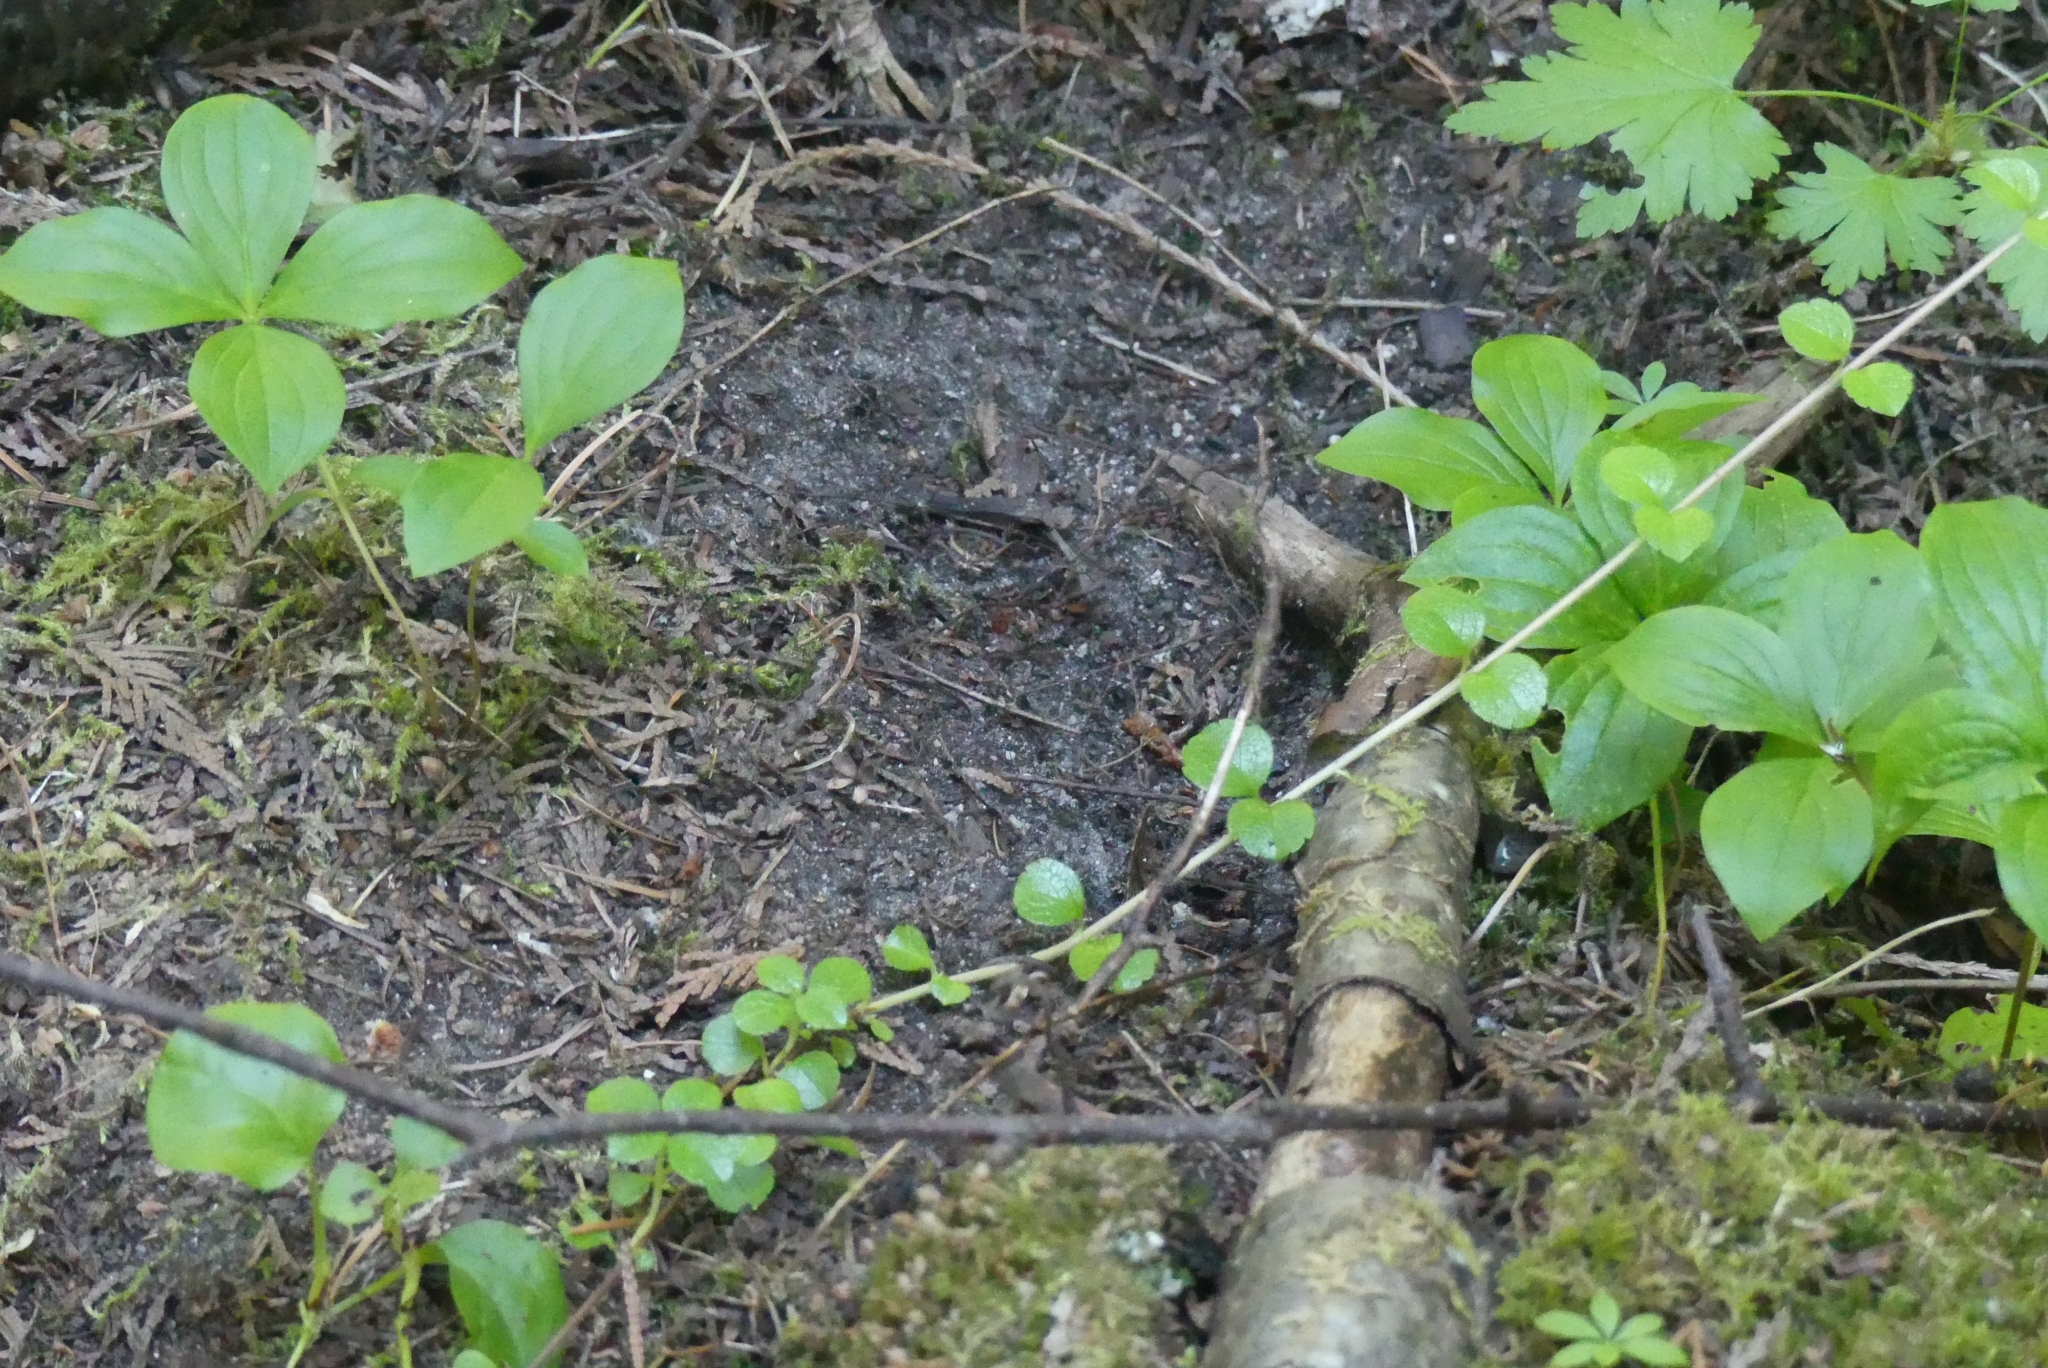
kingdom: Plantae
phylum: Tracheophyta
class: Magnoliopsida
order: Dipsacales
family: Caprifoliaceae
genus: Linnaea
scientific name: Linnaea borealis
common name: Twinflower
